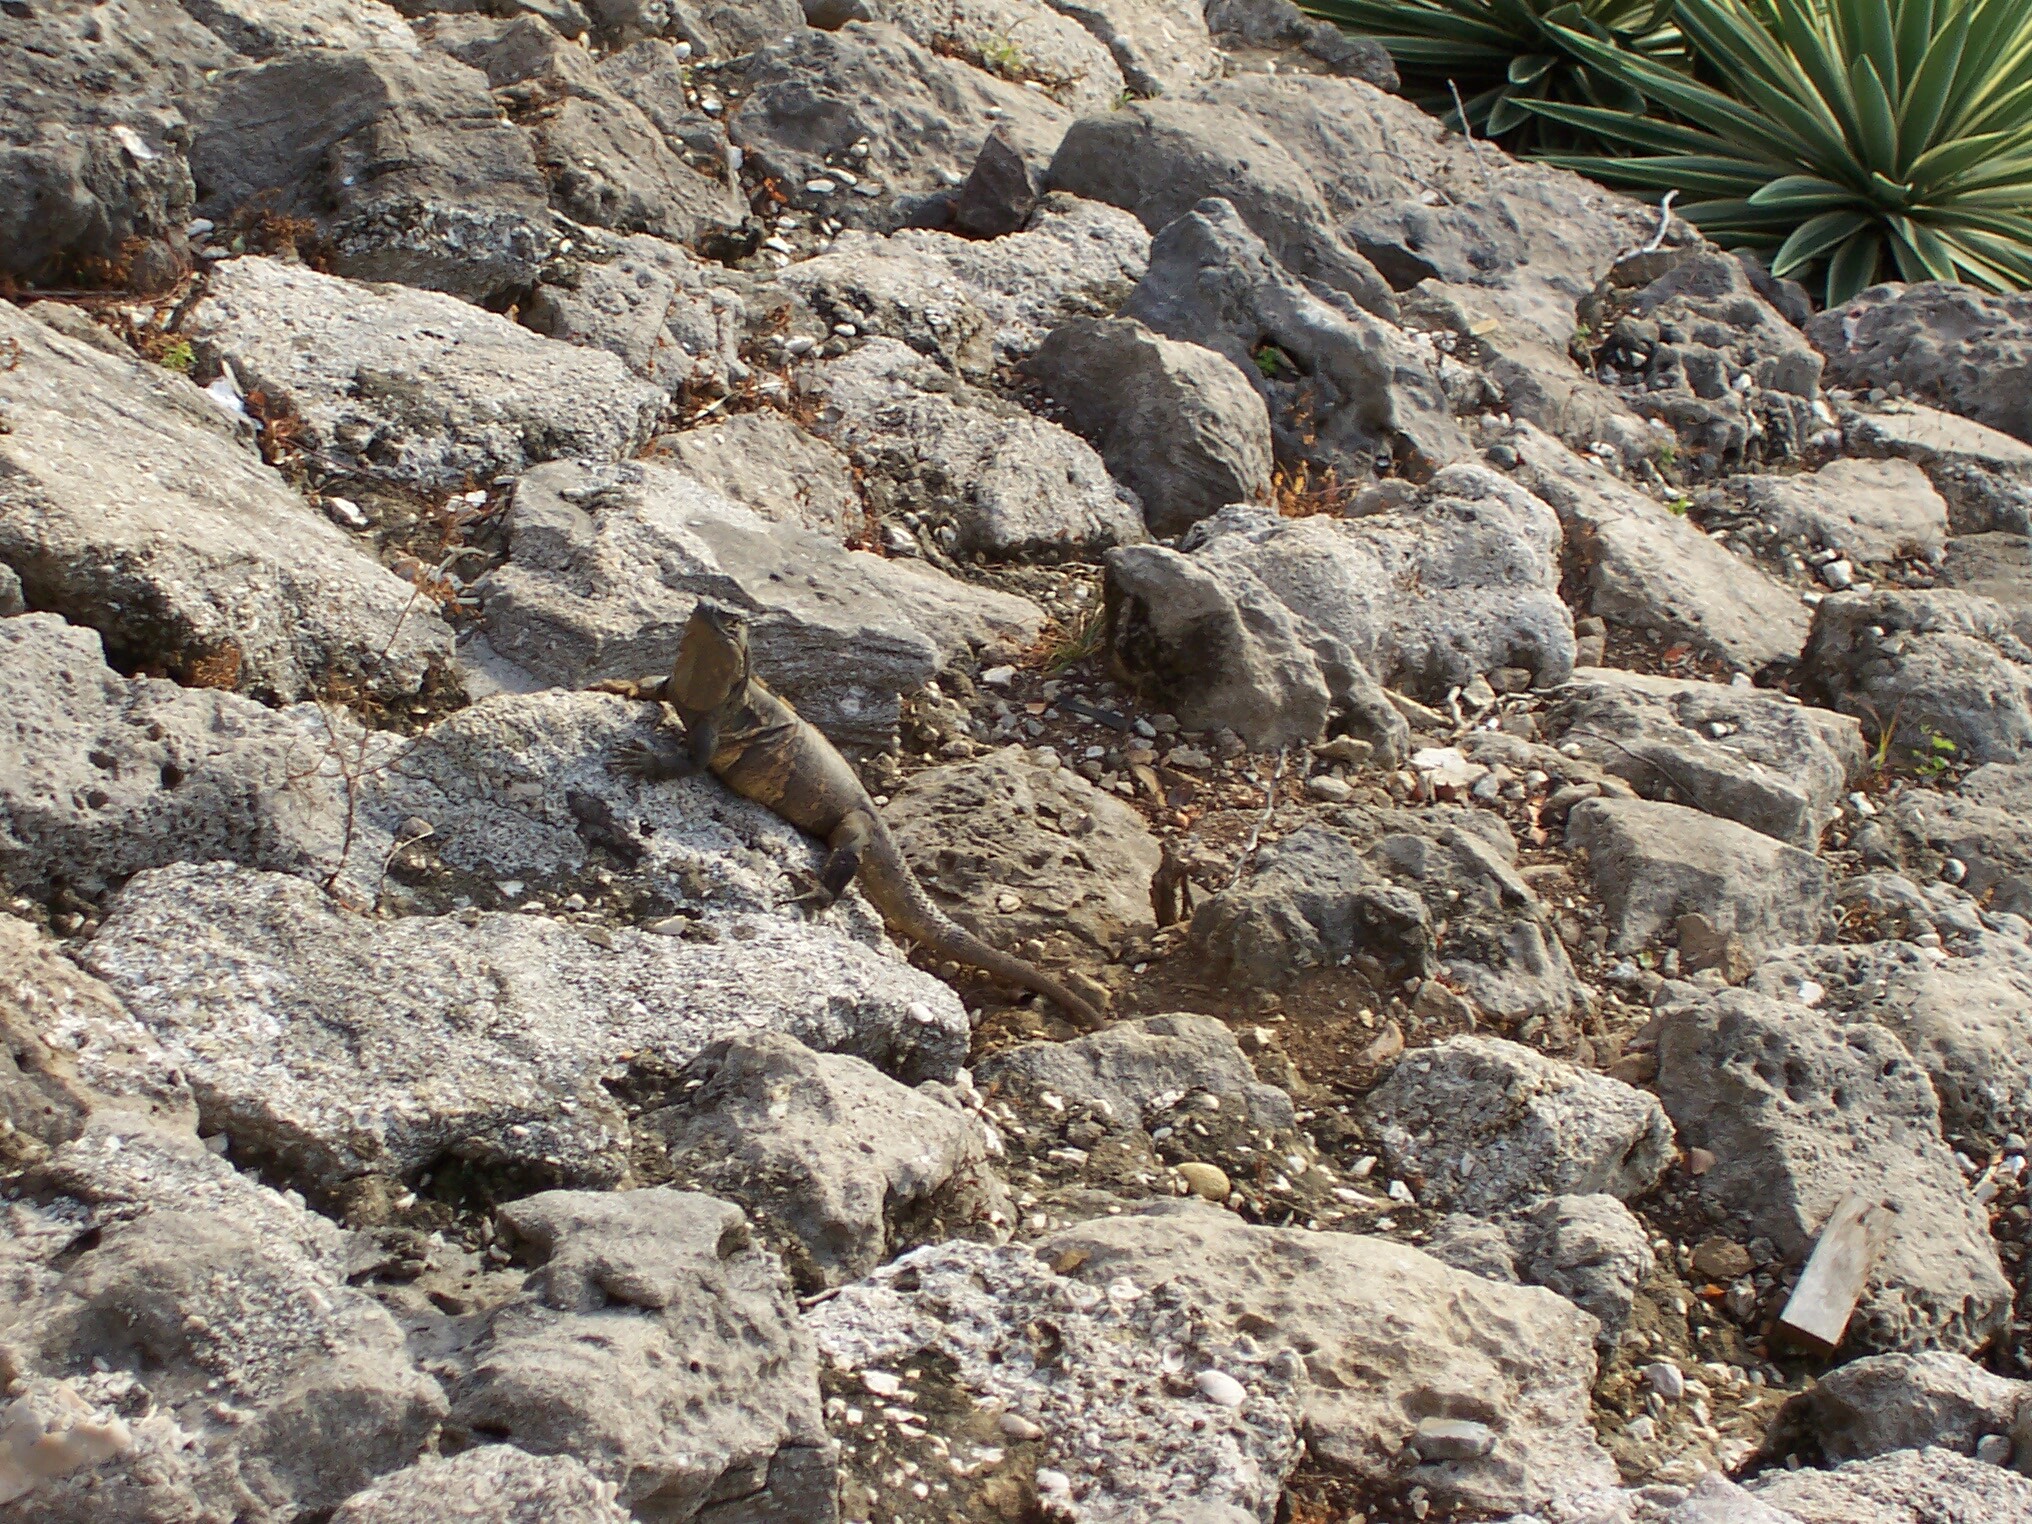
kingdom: Animalia
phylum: Chordata
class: Squamata
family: Iguanidae
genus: Ctenosaura
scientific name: Ctenosaura similis
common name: Black spiny-tailed iguana
